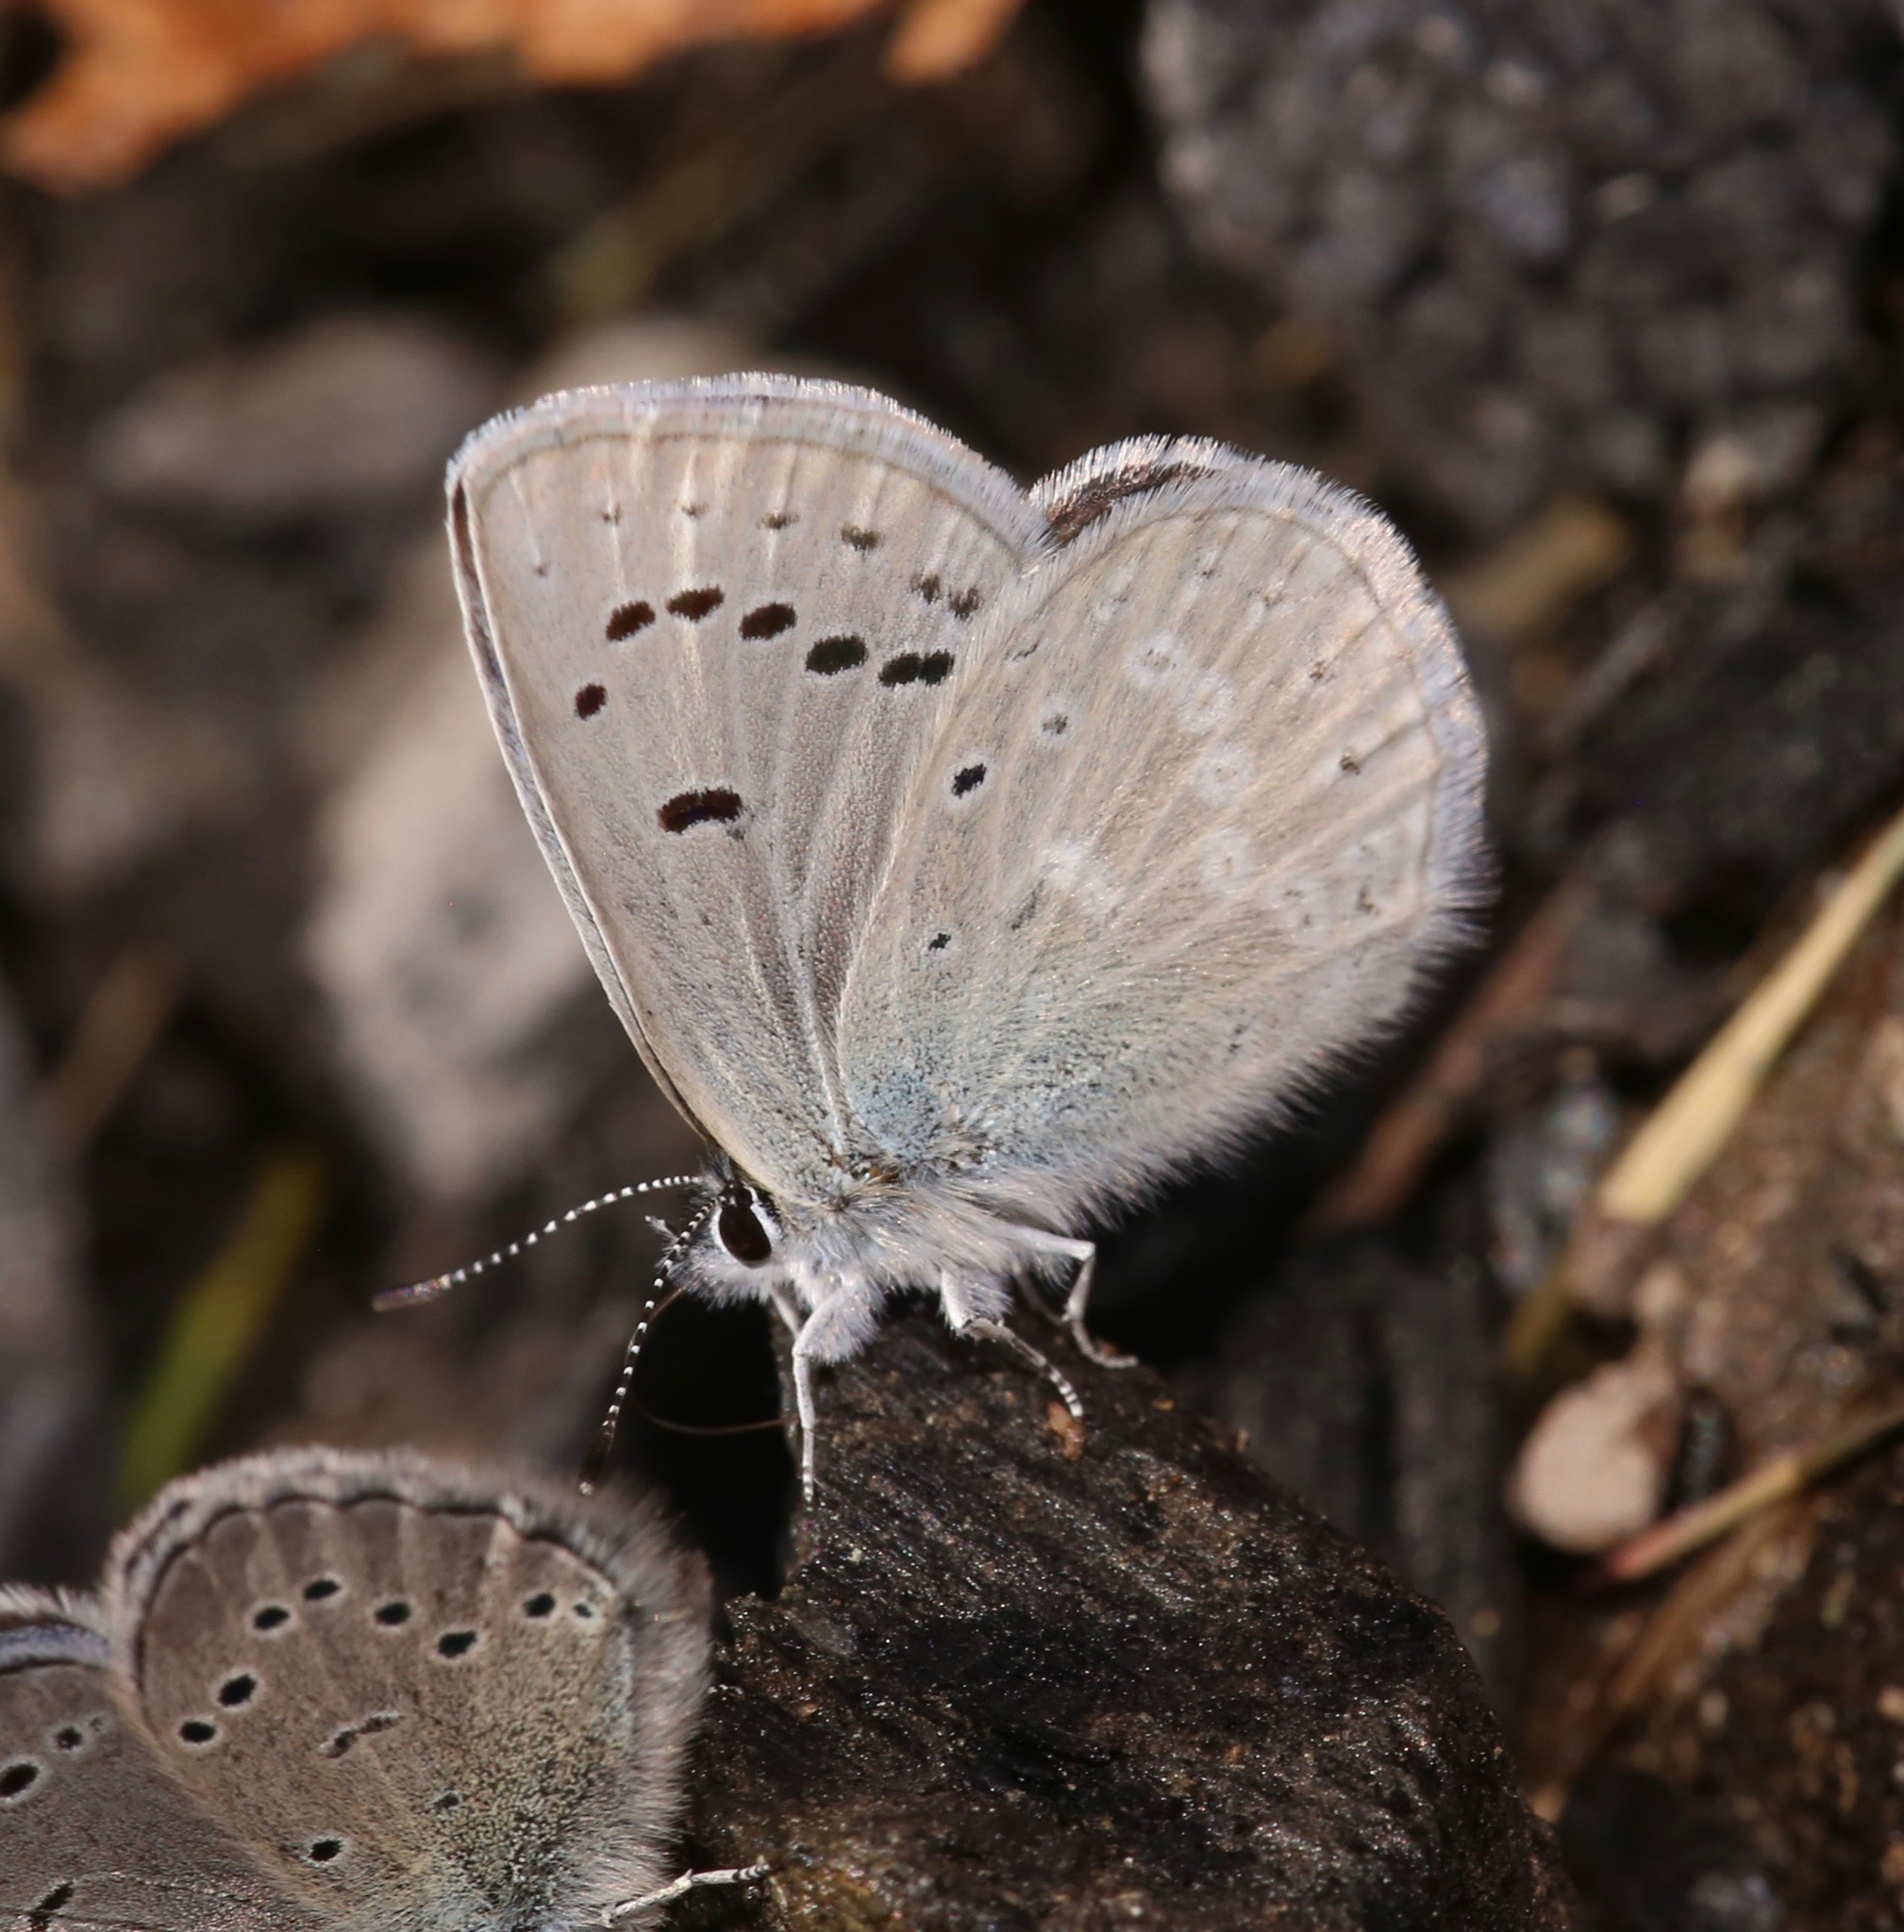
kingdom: Animalia
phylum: Arthropoda
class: Insecta
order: Lepidoptera
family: Lycaenidae
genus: Icaricia
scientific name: Icaricia icarioides
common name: Boisduval's blue
